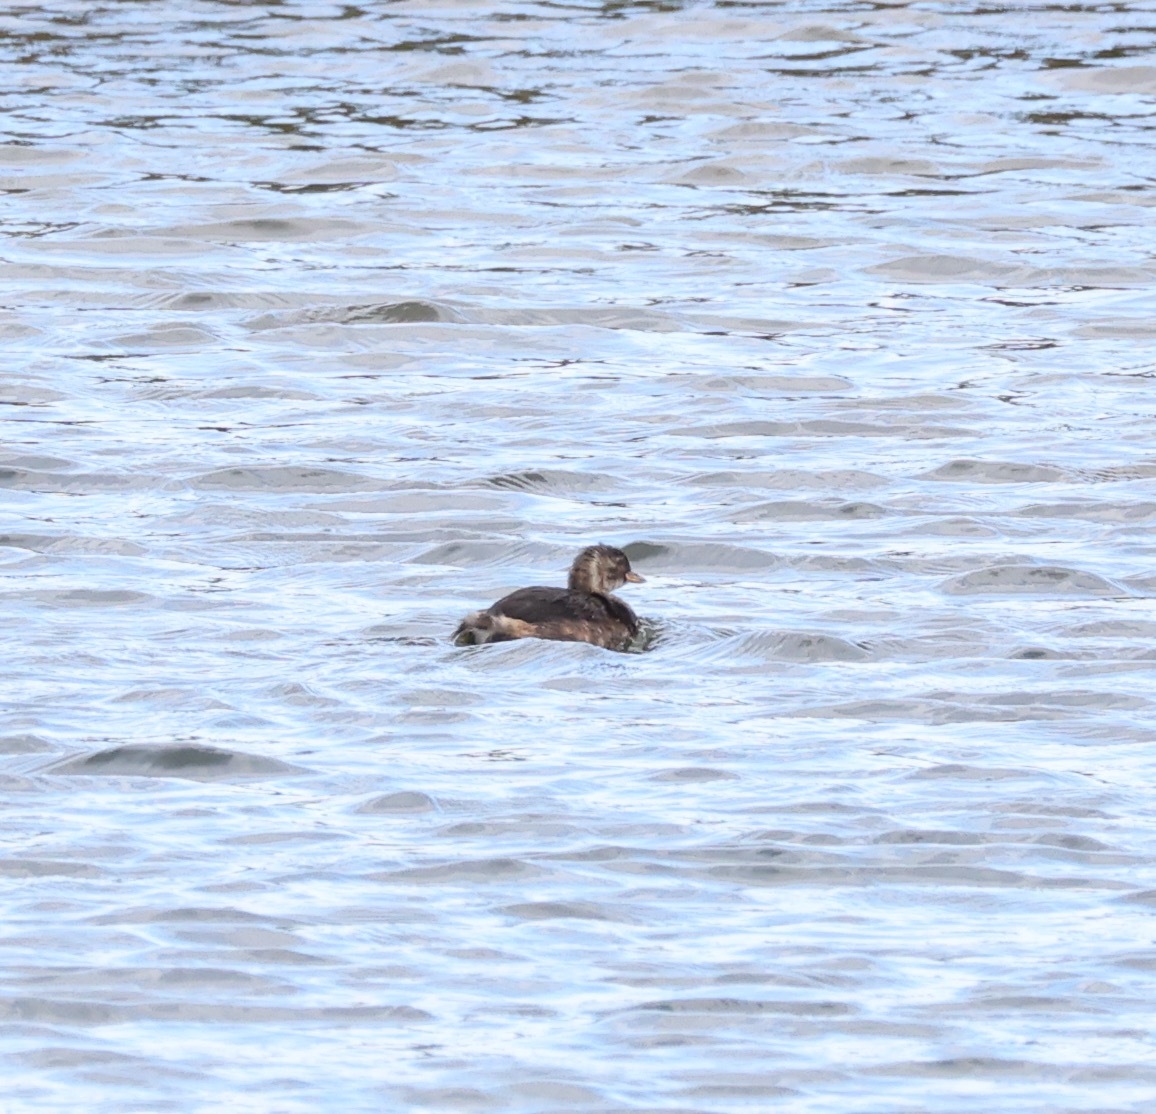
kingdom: Animalia
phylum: Chordata
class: Aves
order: Podicipediformes
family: Podicipedidae
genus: Tachybaptus
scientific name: Tachybaptus ruficollis
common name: Little grebe
